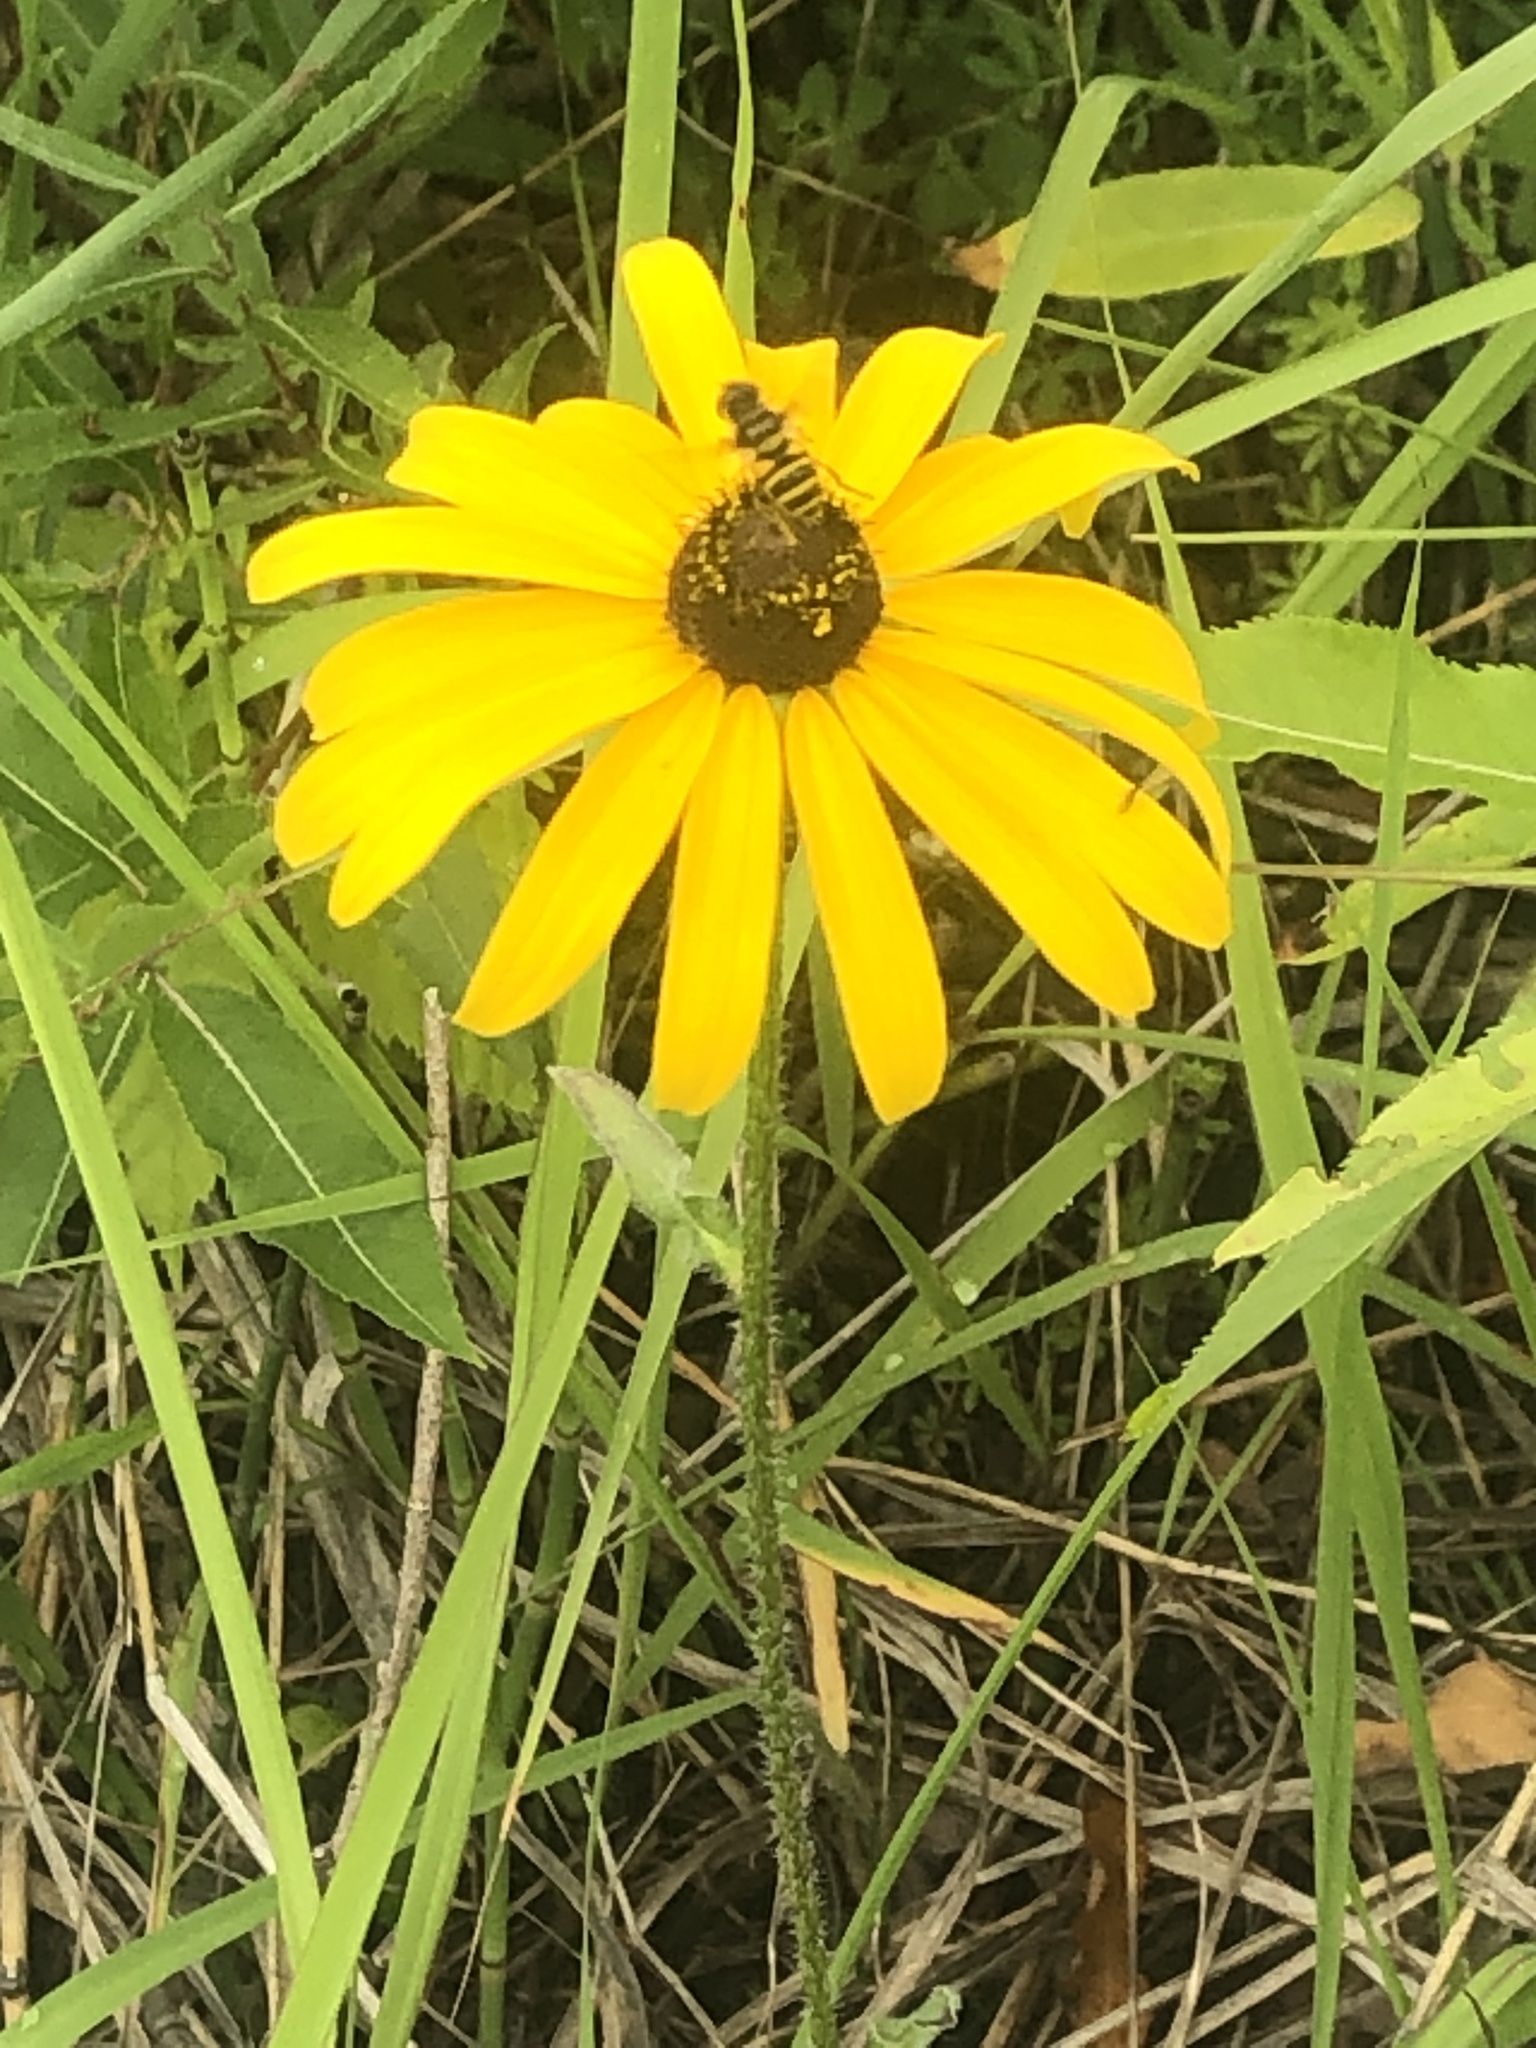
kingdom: Animalia
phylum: Arthropoda
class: Insecta
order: Diptera
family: Syrphidae
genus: Eristalis
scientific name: Eristalis transversa
